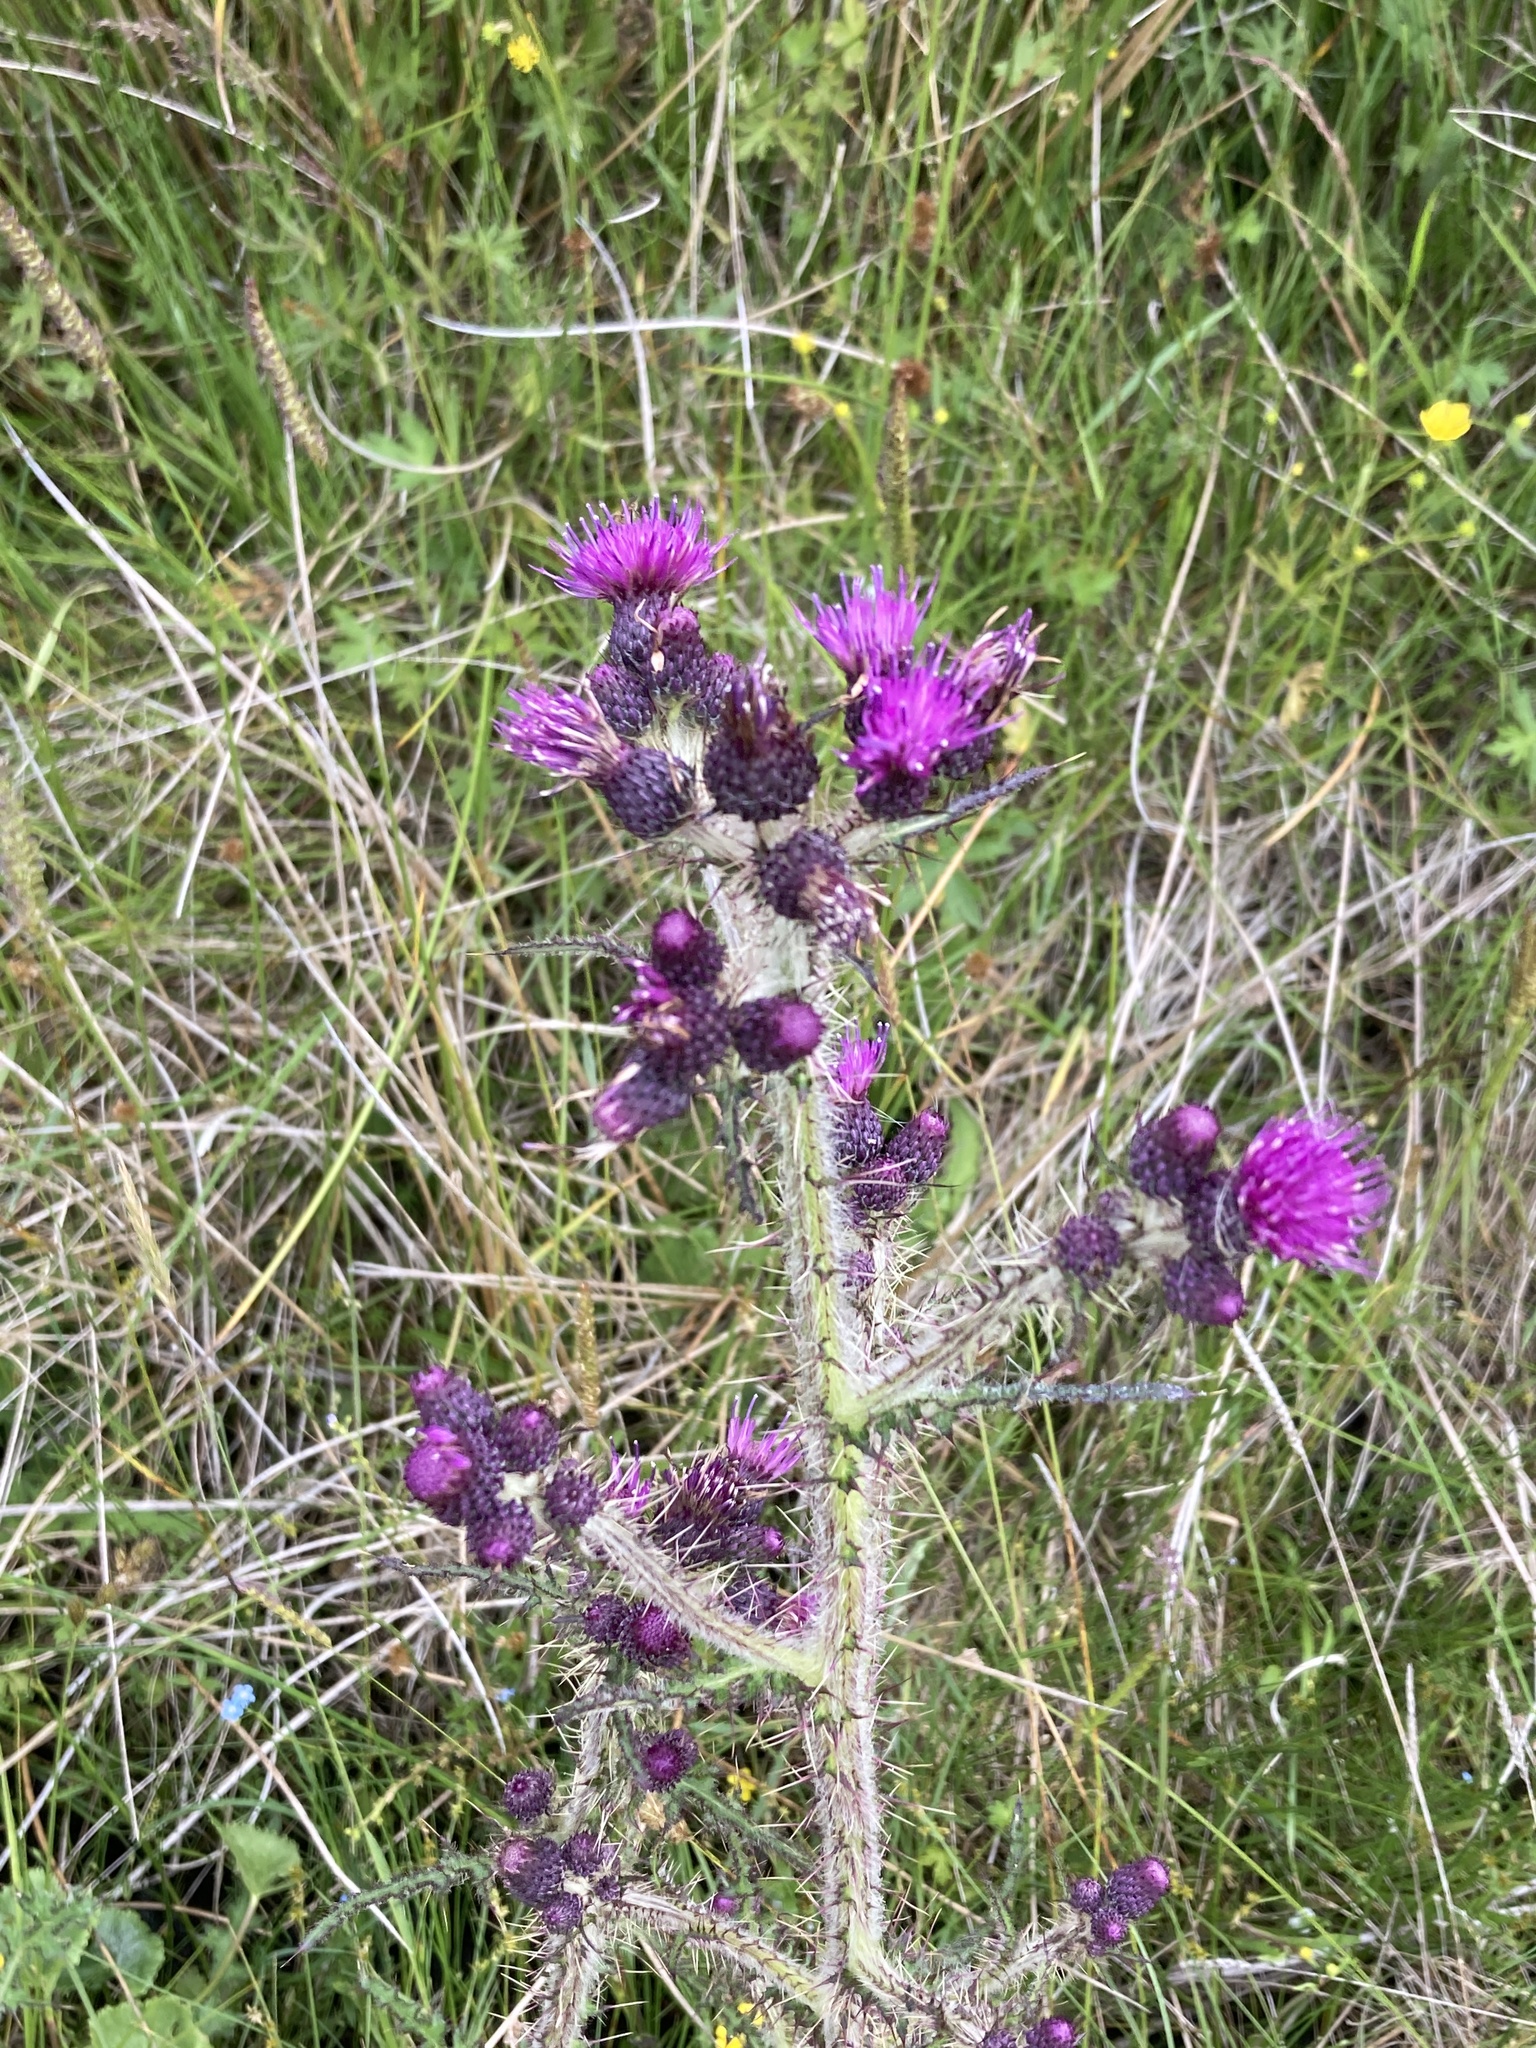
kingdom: Plantae
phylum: Tracheophyta
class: Magnoliopsida
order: Asterales
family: Asteraceae
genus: Cirsium
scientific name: Cirsium palustre
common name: Marsh thistle
